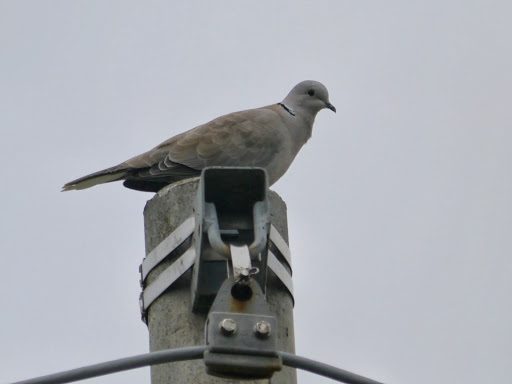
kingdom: Animalia
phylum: Chordata
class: Aves
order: Columbiformes
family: Columbidae
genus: Streptopelia
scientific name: Streptopelia decaocto
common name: Eurasian collared dove
